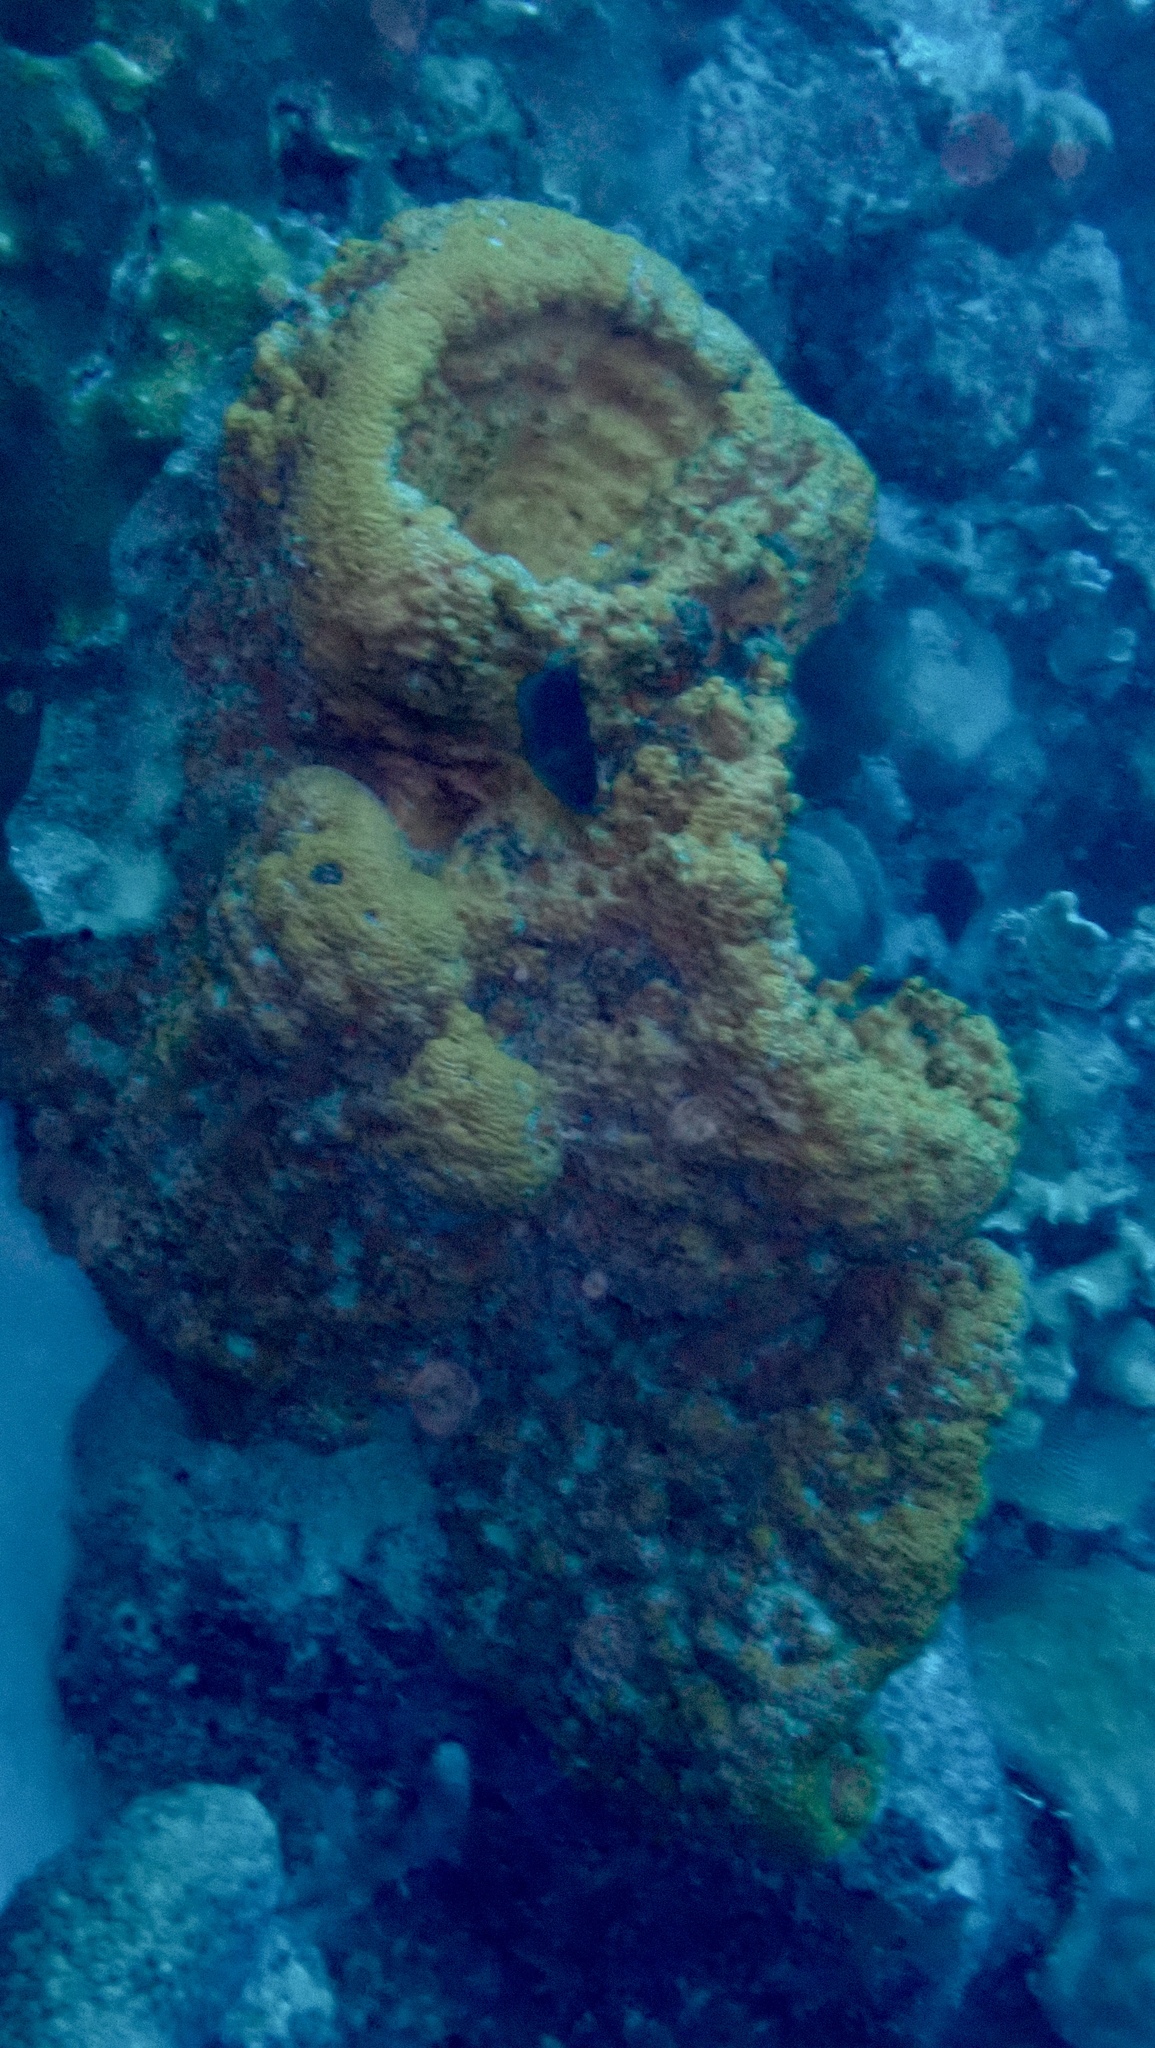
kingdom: Animalia
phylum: Porifera
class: Demospongiae
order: Agelasida
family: Agelasidae
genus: Agelas
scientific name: Agelas clathrodes
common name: Orange elephant ear sponge
